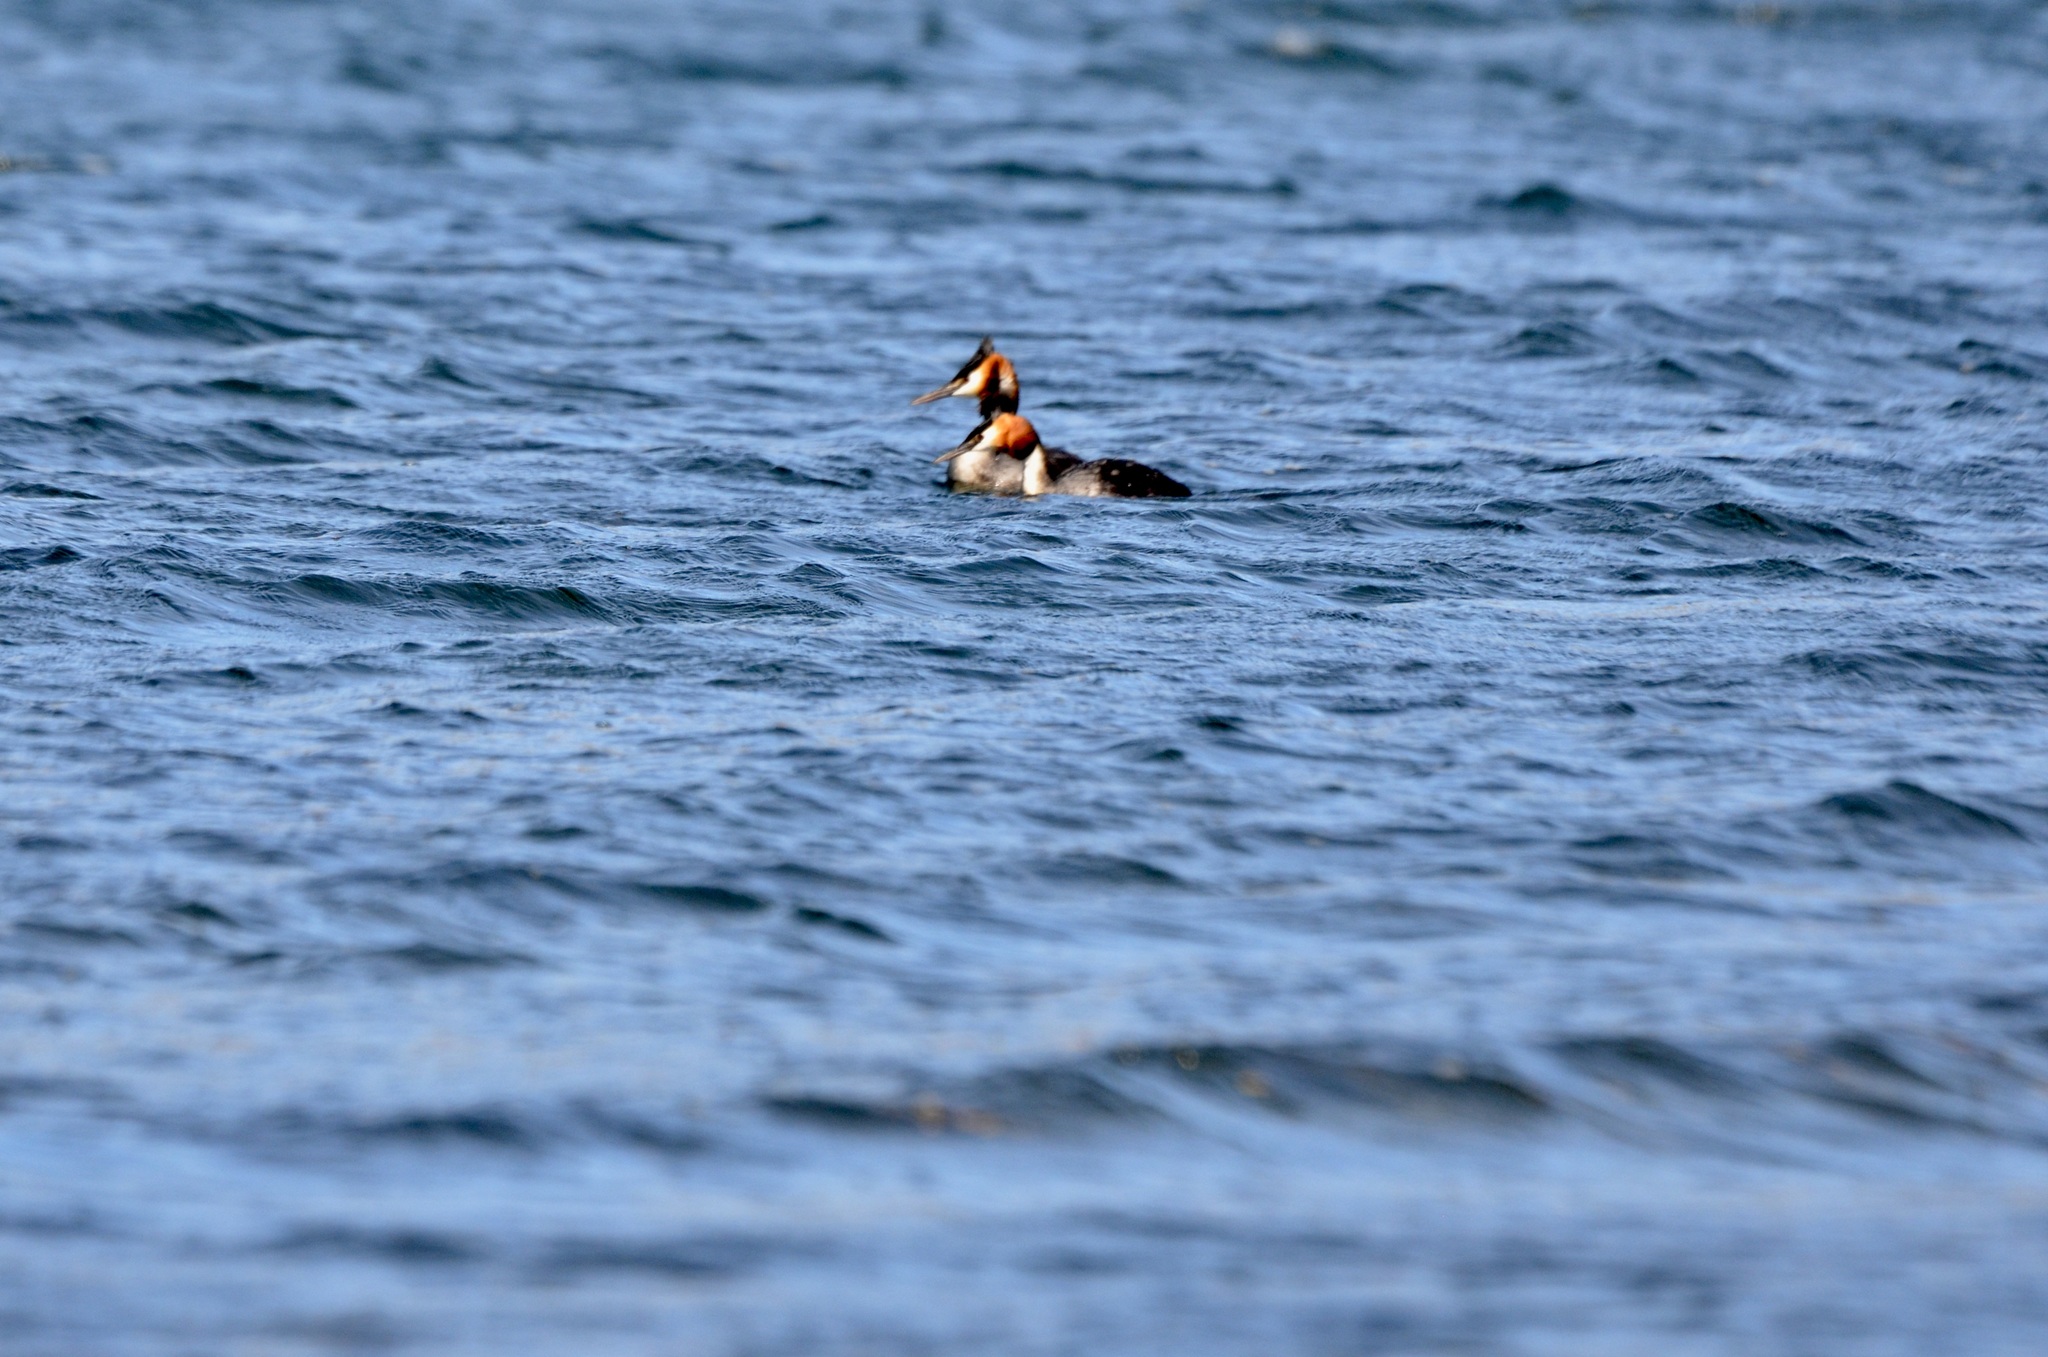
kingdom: Animalia
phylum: Chordata
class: Aves
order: Podicipediformes
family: Podicipedidae
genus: Podiceps
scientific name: Podiceps cristatus
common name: Great crested grebe
